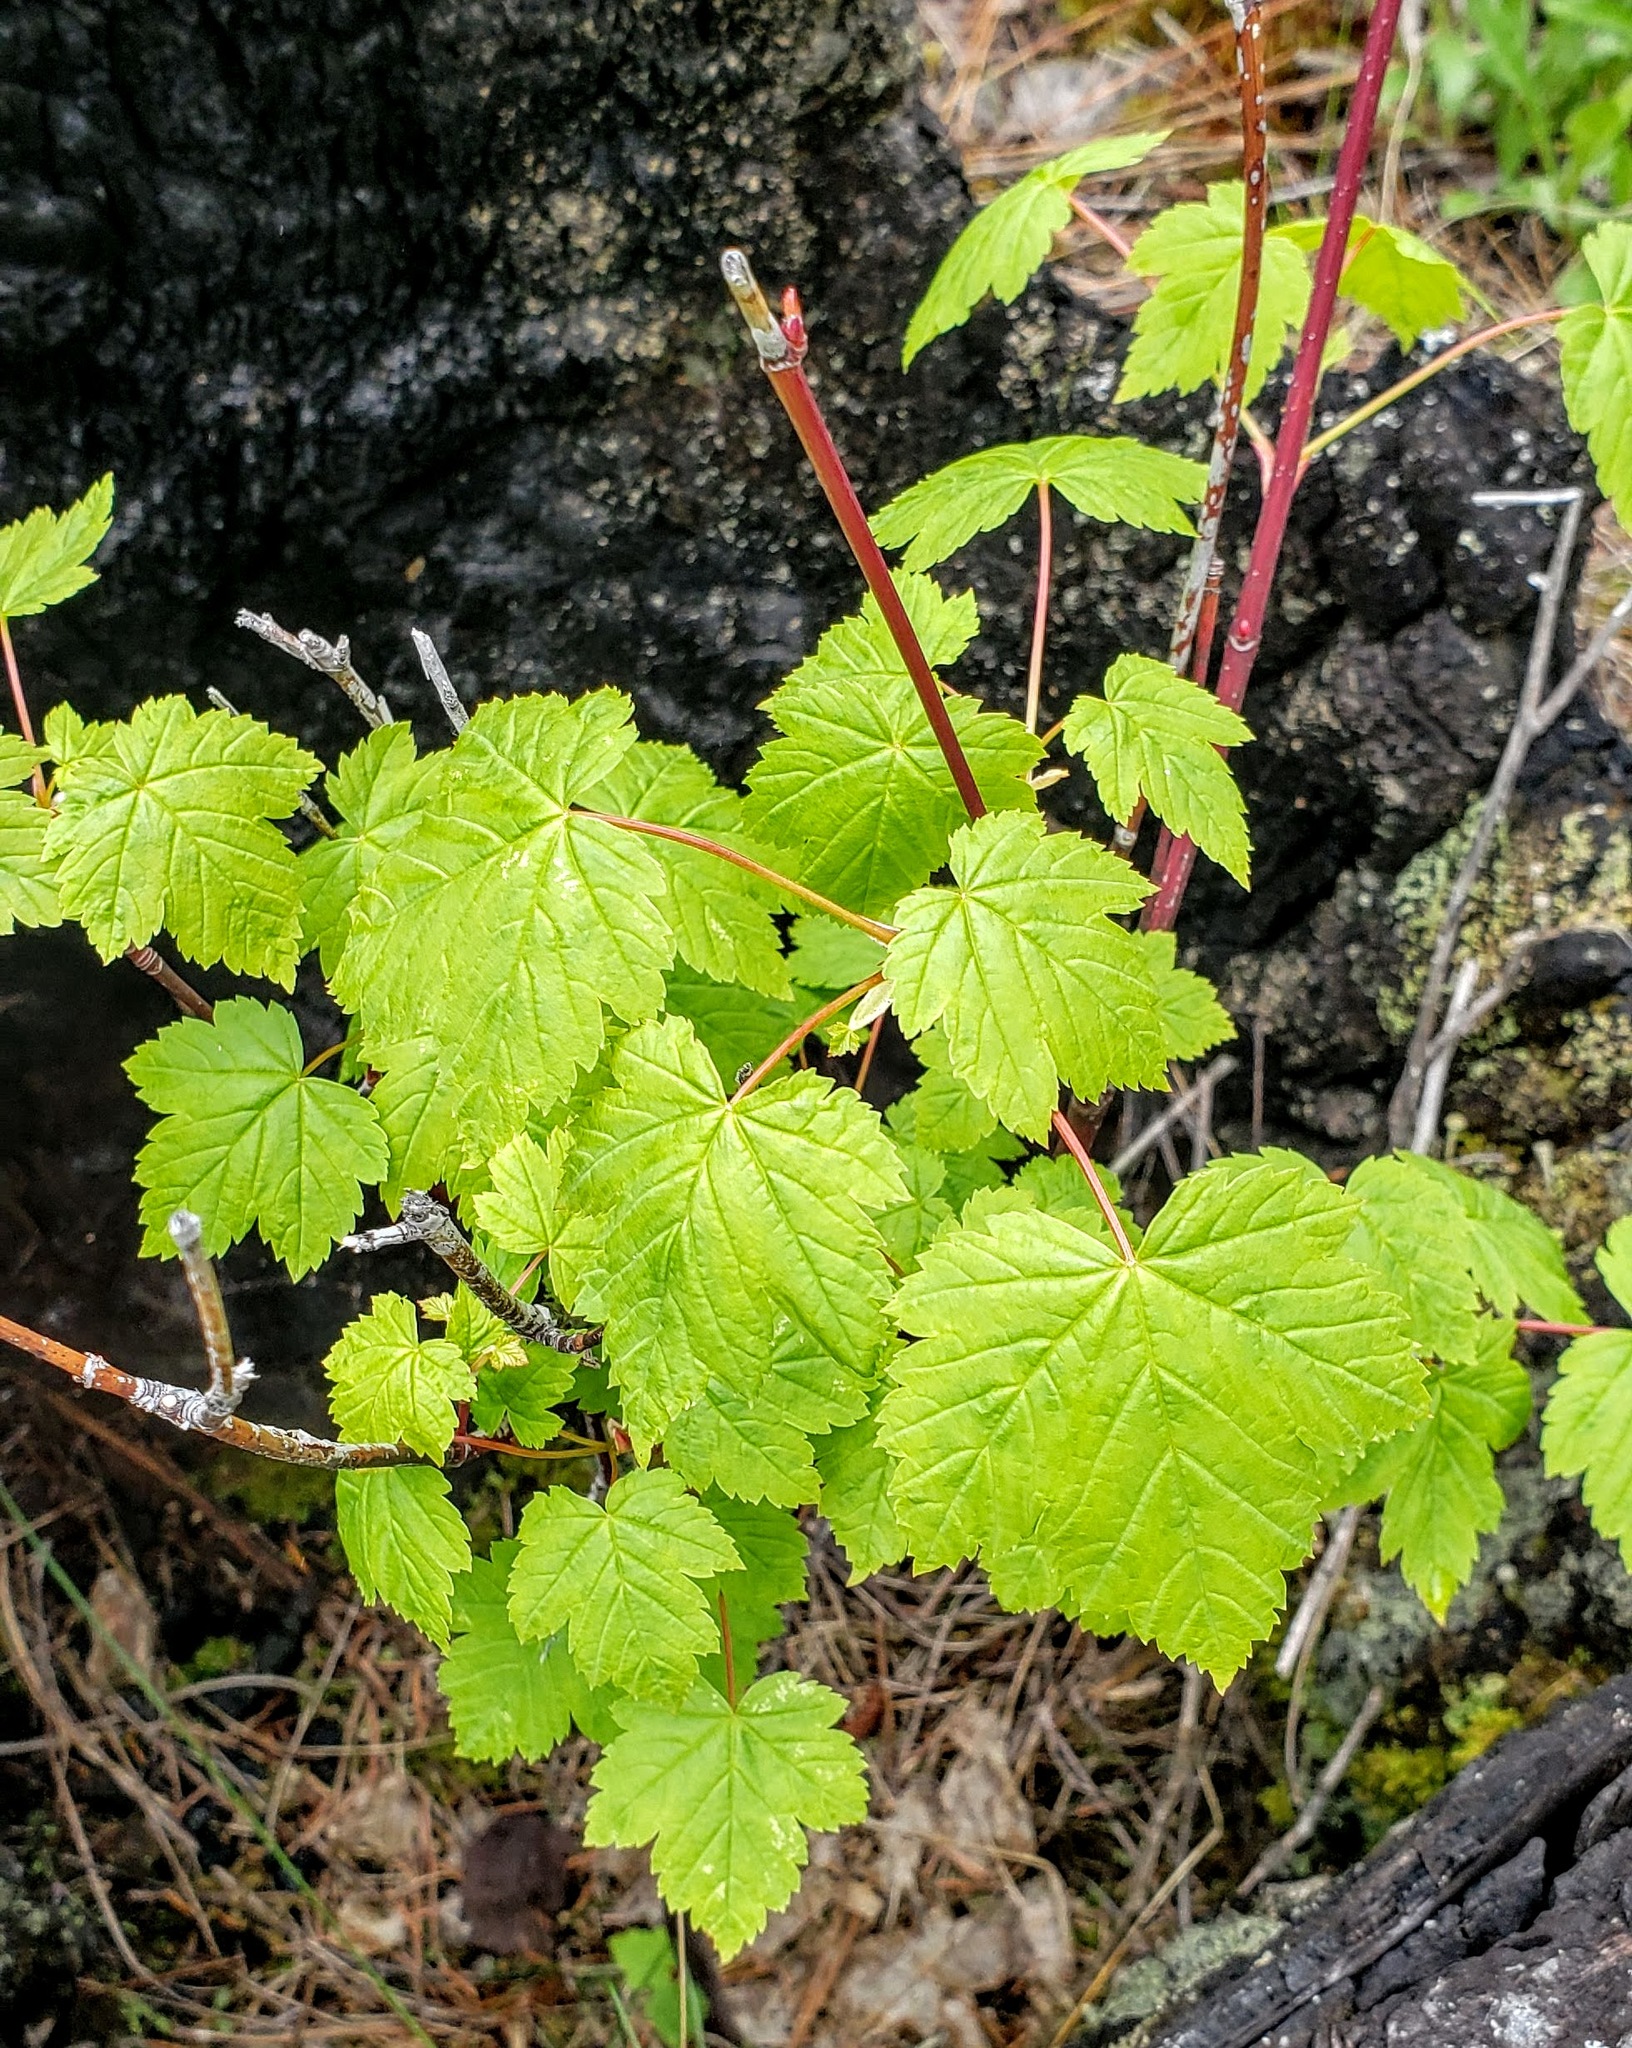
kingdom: Plantae
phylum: Tracheophyta
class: Magnoliopsida
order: Sapindales
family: Sapindaceae
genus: Acer
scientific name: Acer glabrum
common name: Rocky mountain maple
